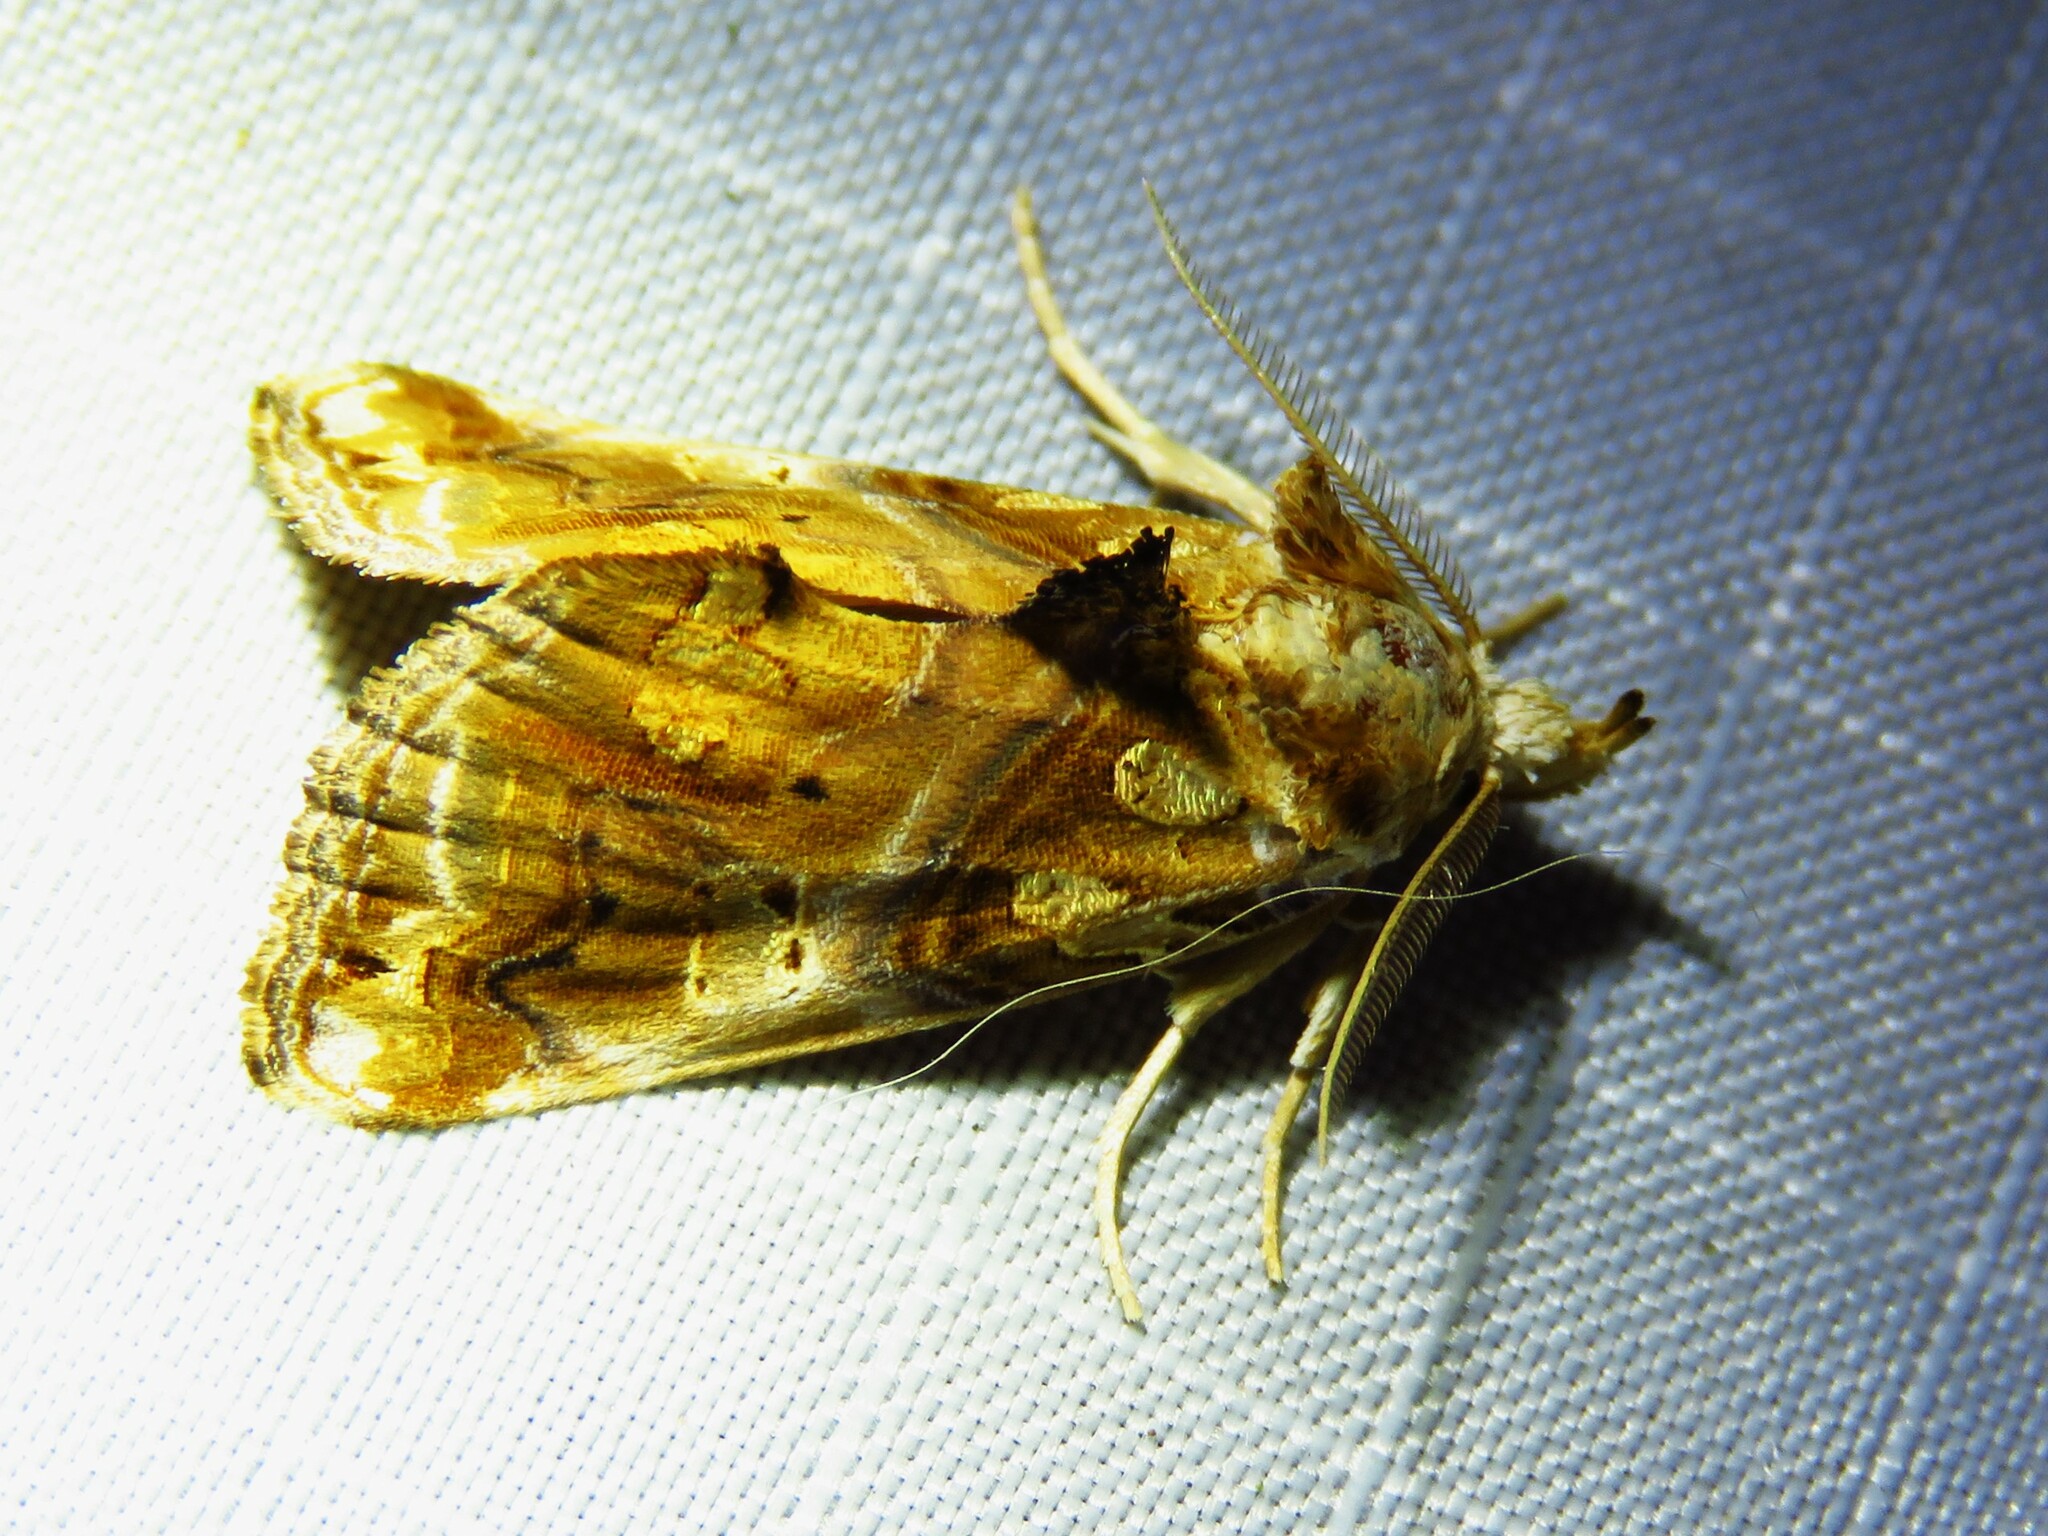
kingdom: Animalia
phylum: Arthropoda
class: Insecta
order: Lepidoptera
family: Erebidae
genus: Plusiodonta
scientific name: Plusiodonta compressipalpis
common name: Moonseed moth
